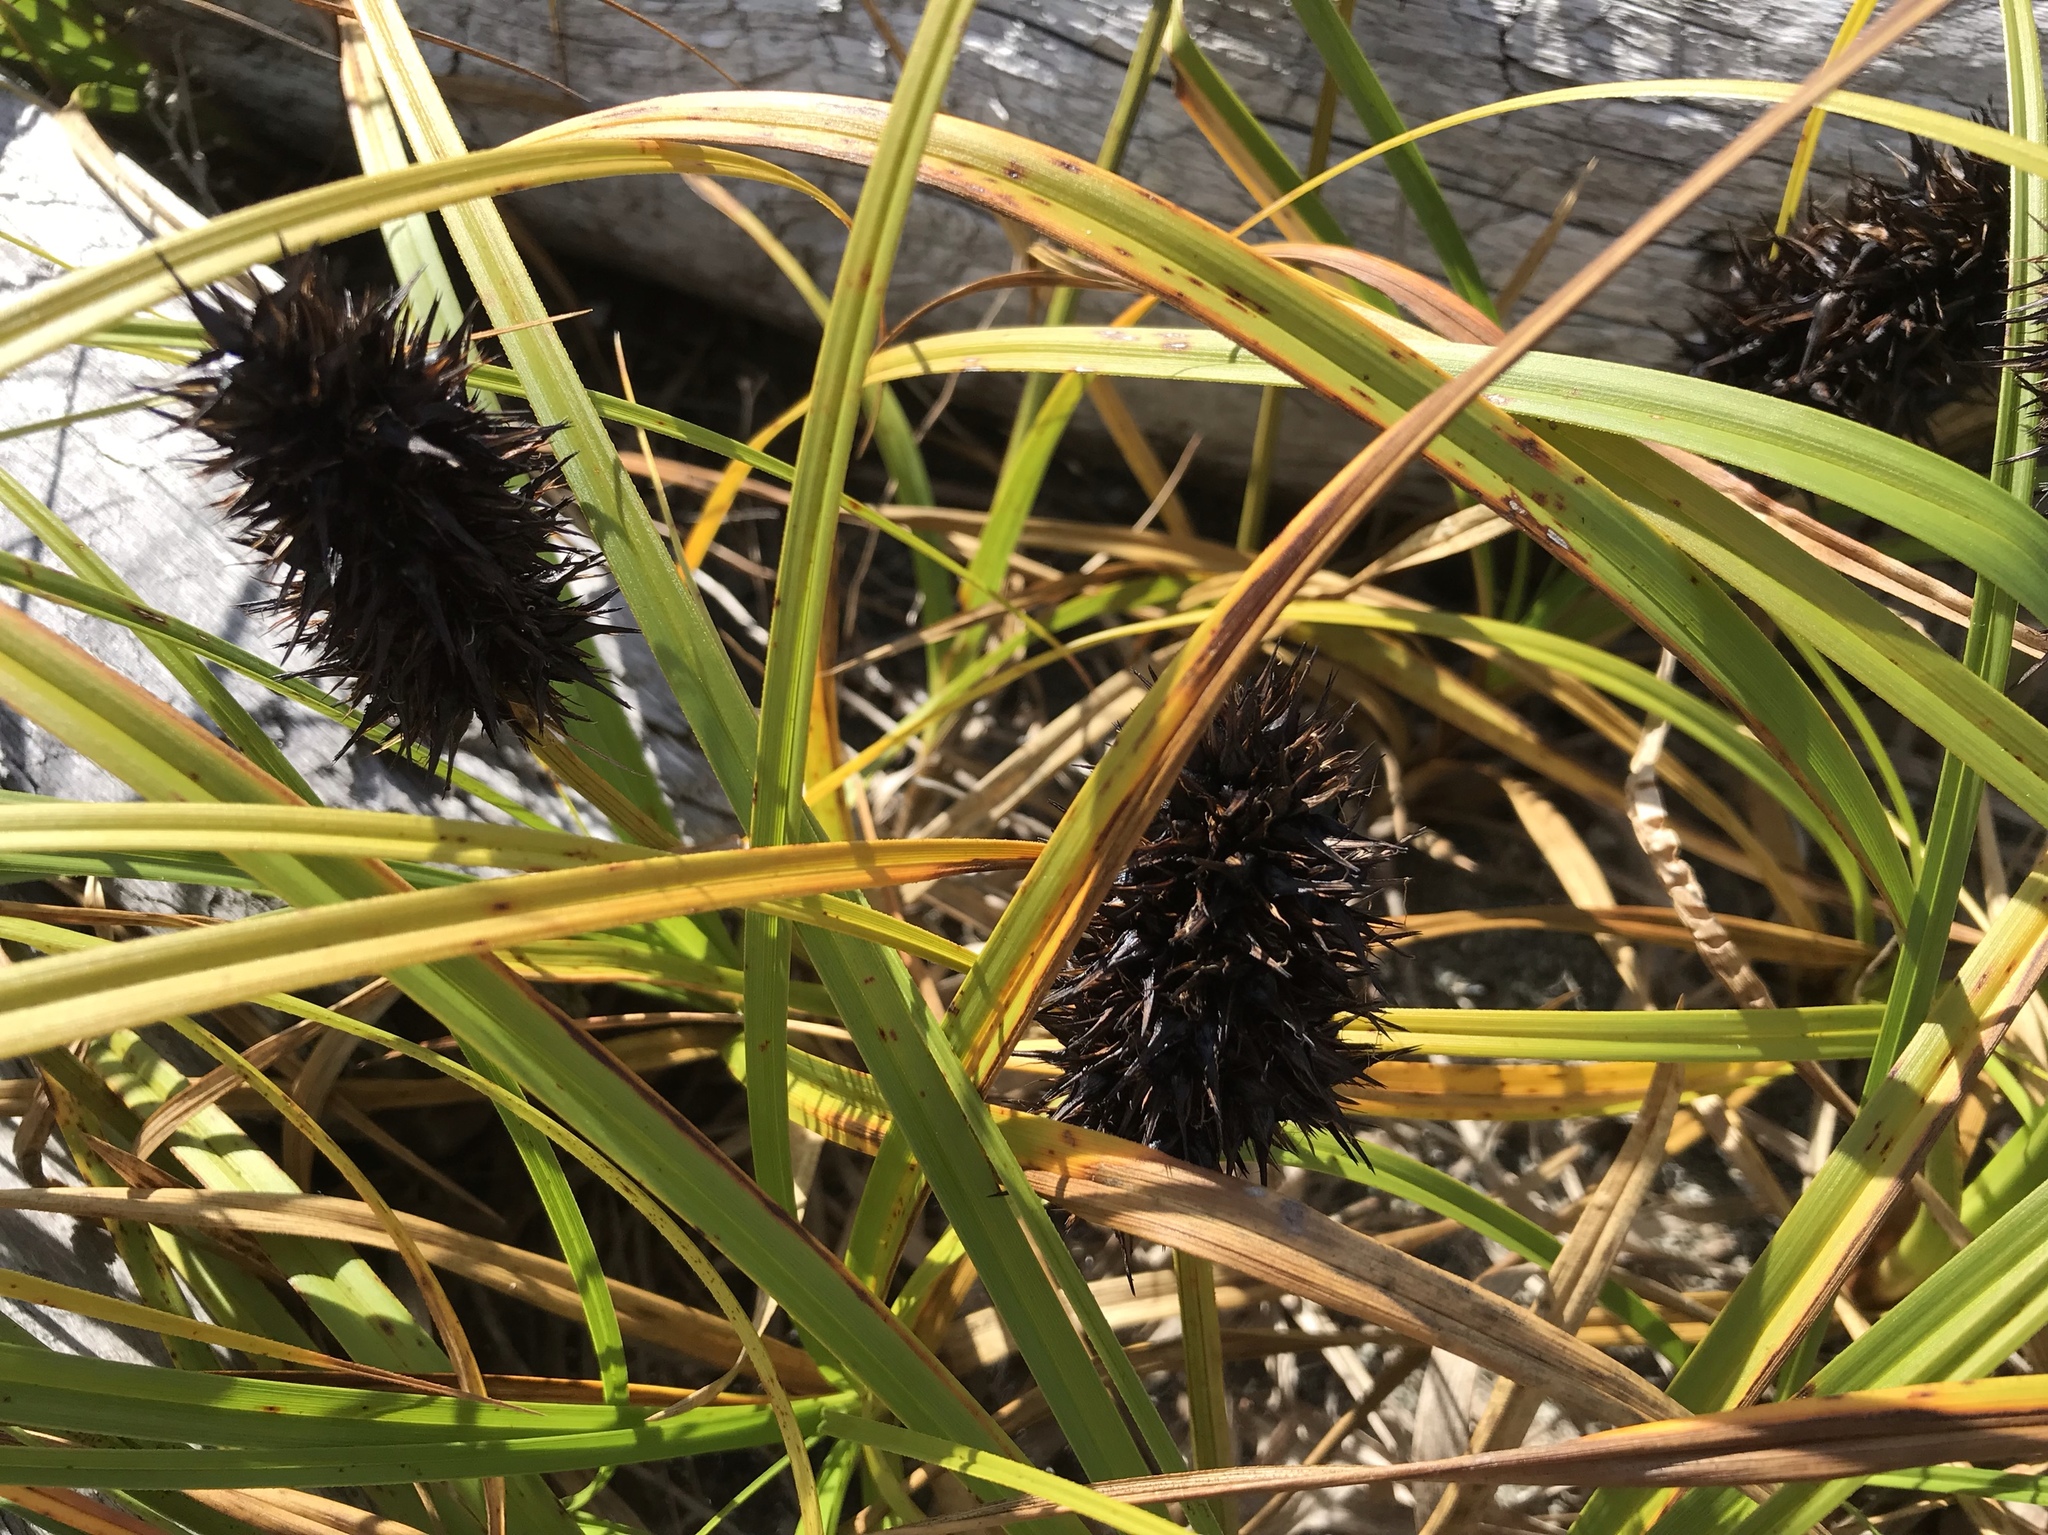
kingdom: Plantae
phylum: Tracheophyta
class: Liliopsida
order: Poales
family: Cyperaceae
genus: Carex
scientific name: Carex macrocephala
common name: Large-head sedge
